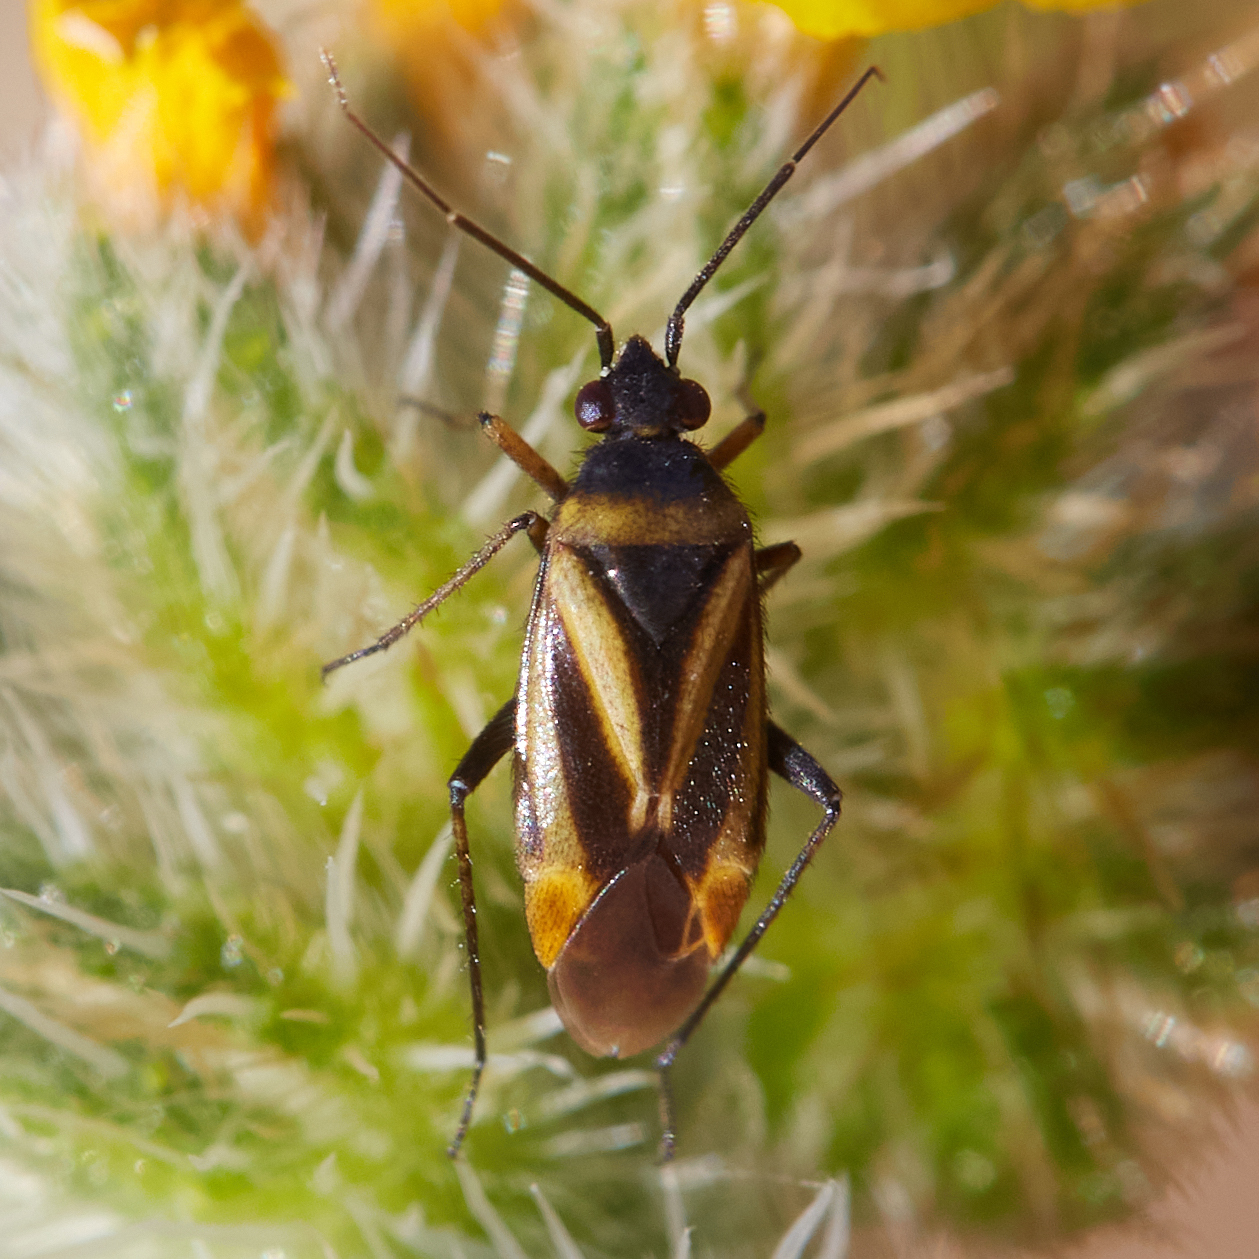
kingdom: Animalia
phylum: Arthropoda
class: Insecta
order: Hemiptera
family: Miridae
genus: Plagiognathus
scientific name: Plagiognathus moerens
